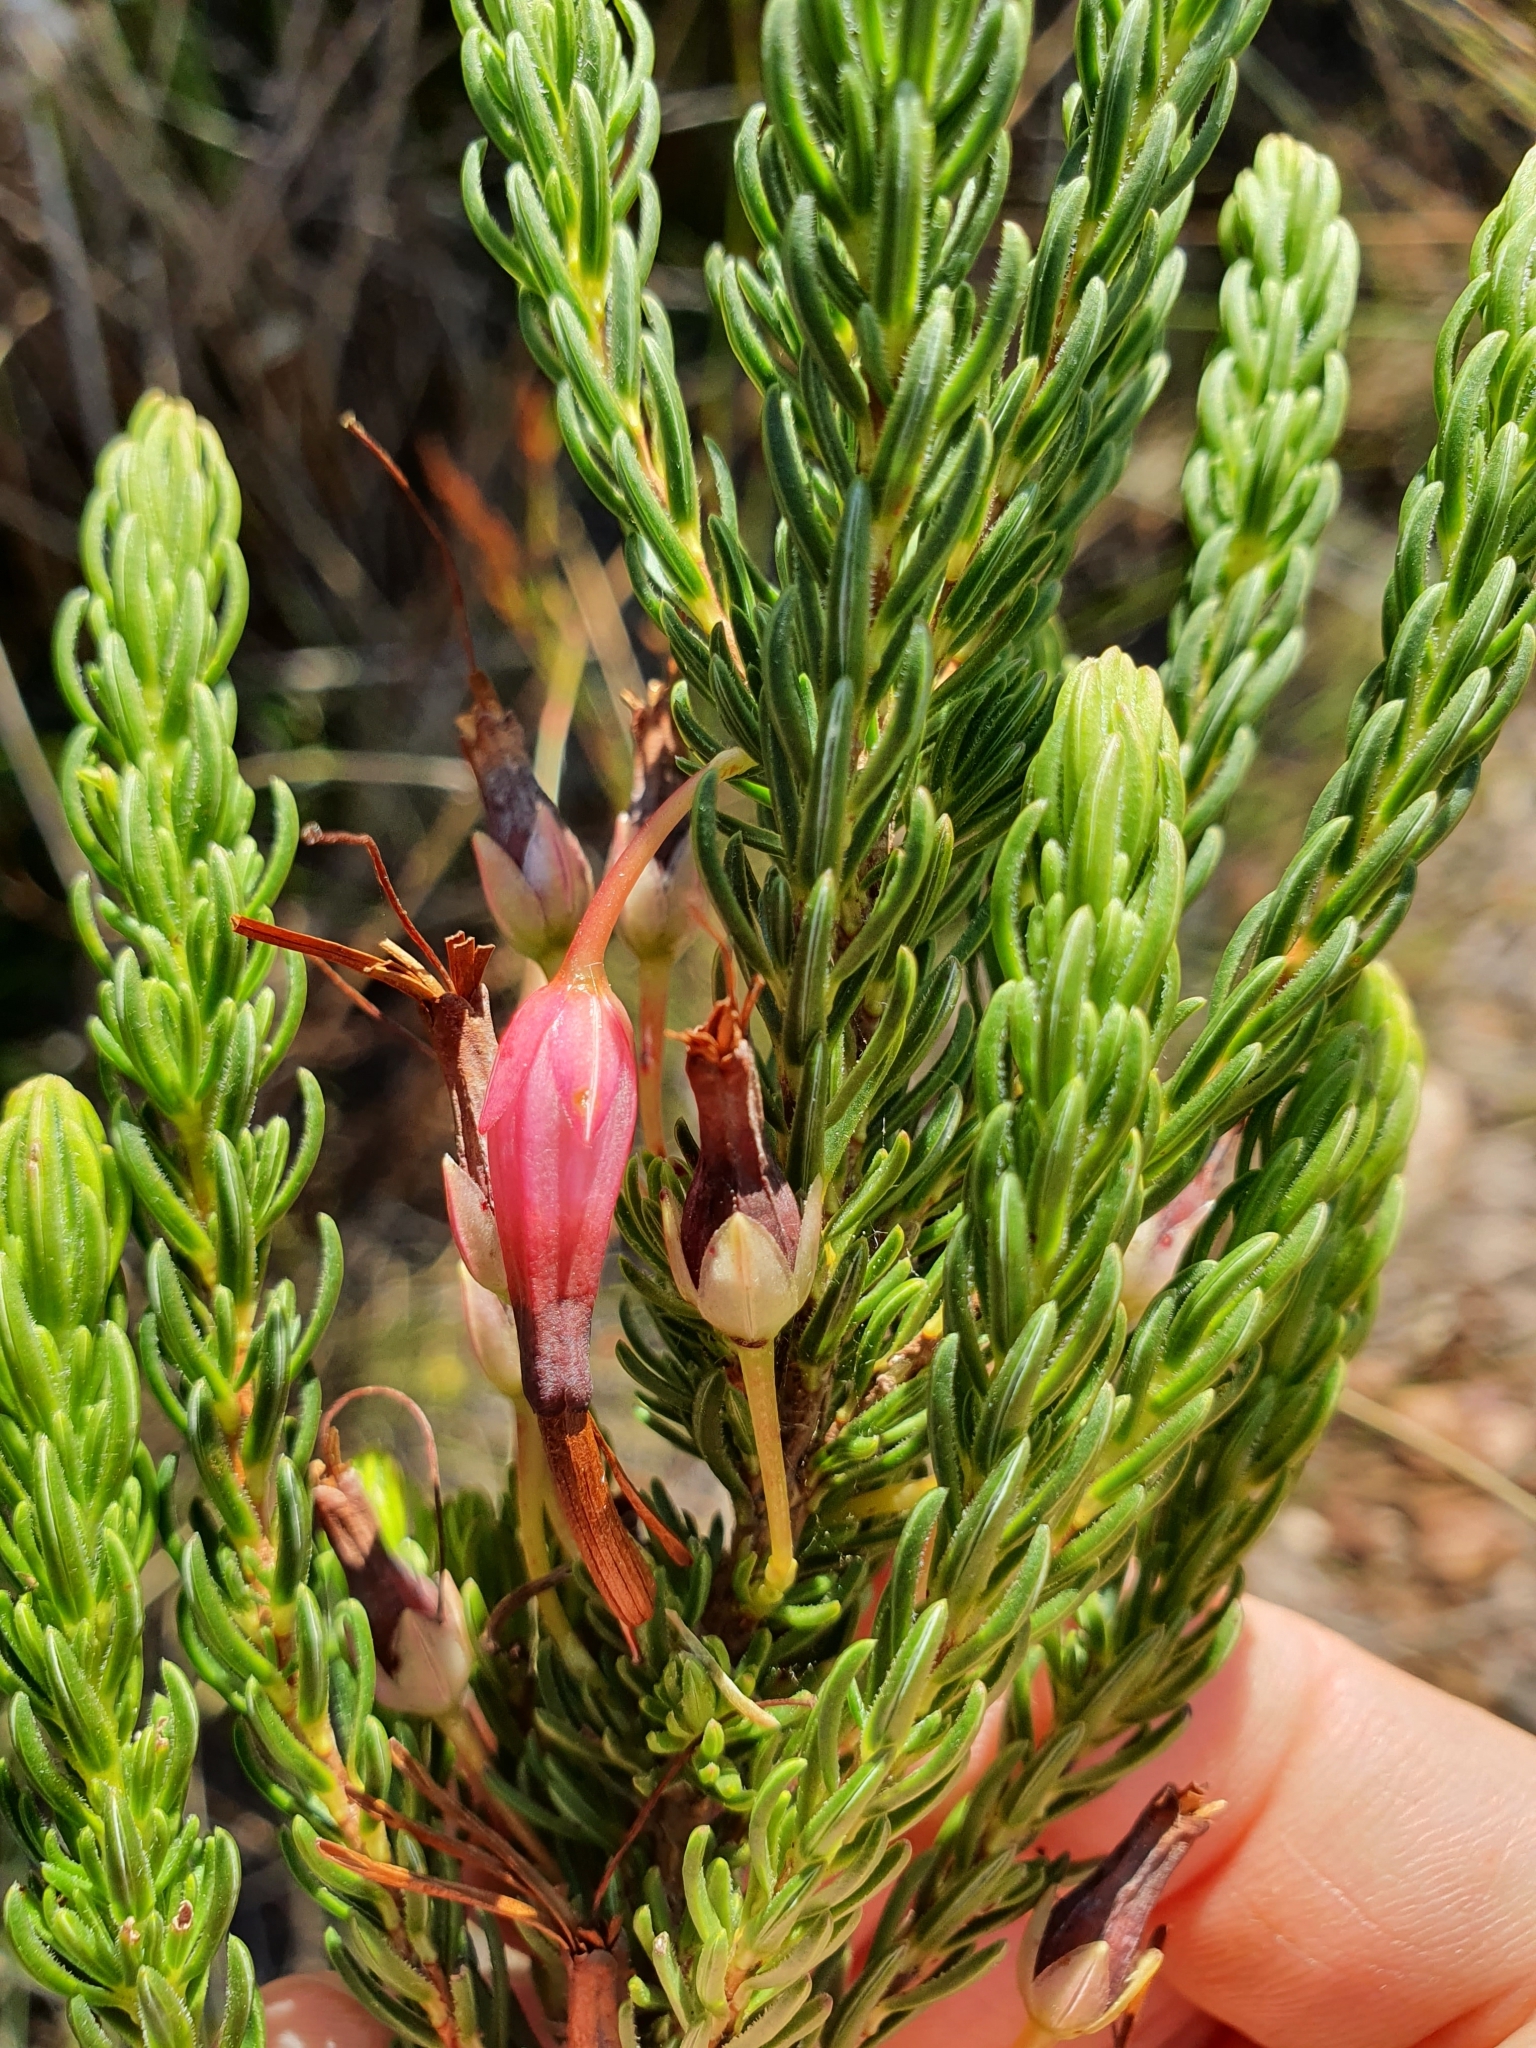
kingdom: Plantae
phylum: Tracheophyta
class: Magnoliopsida
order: Ericales
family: Ericaceae
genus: Erica
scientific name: Erica plukenetii
